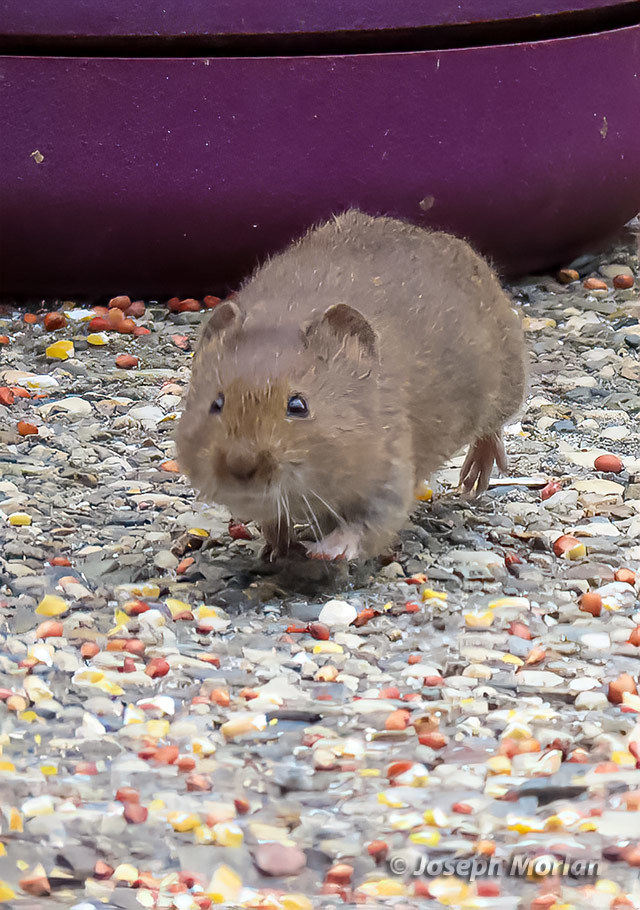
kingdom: Animalia
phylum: Chordata
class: Mammalia
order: Rodentia
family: Cricetidae
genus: Microtus
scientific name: Microtus californicus
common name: California vole
